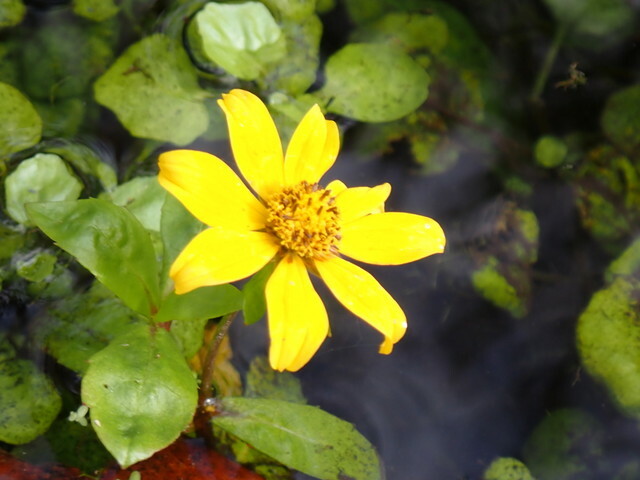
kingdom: Plantae
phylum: Tracheophyta
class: Magnoliopsida
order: Asterales
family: Asteraceae
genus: Bidens
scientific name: Bidens laevis
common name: Larger bur-marigold
